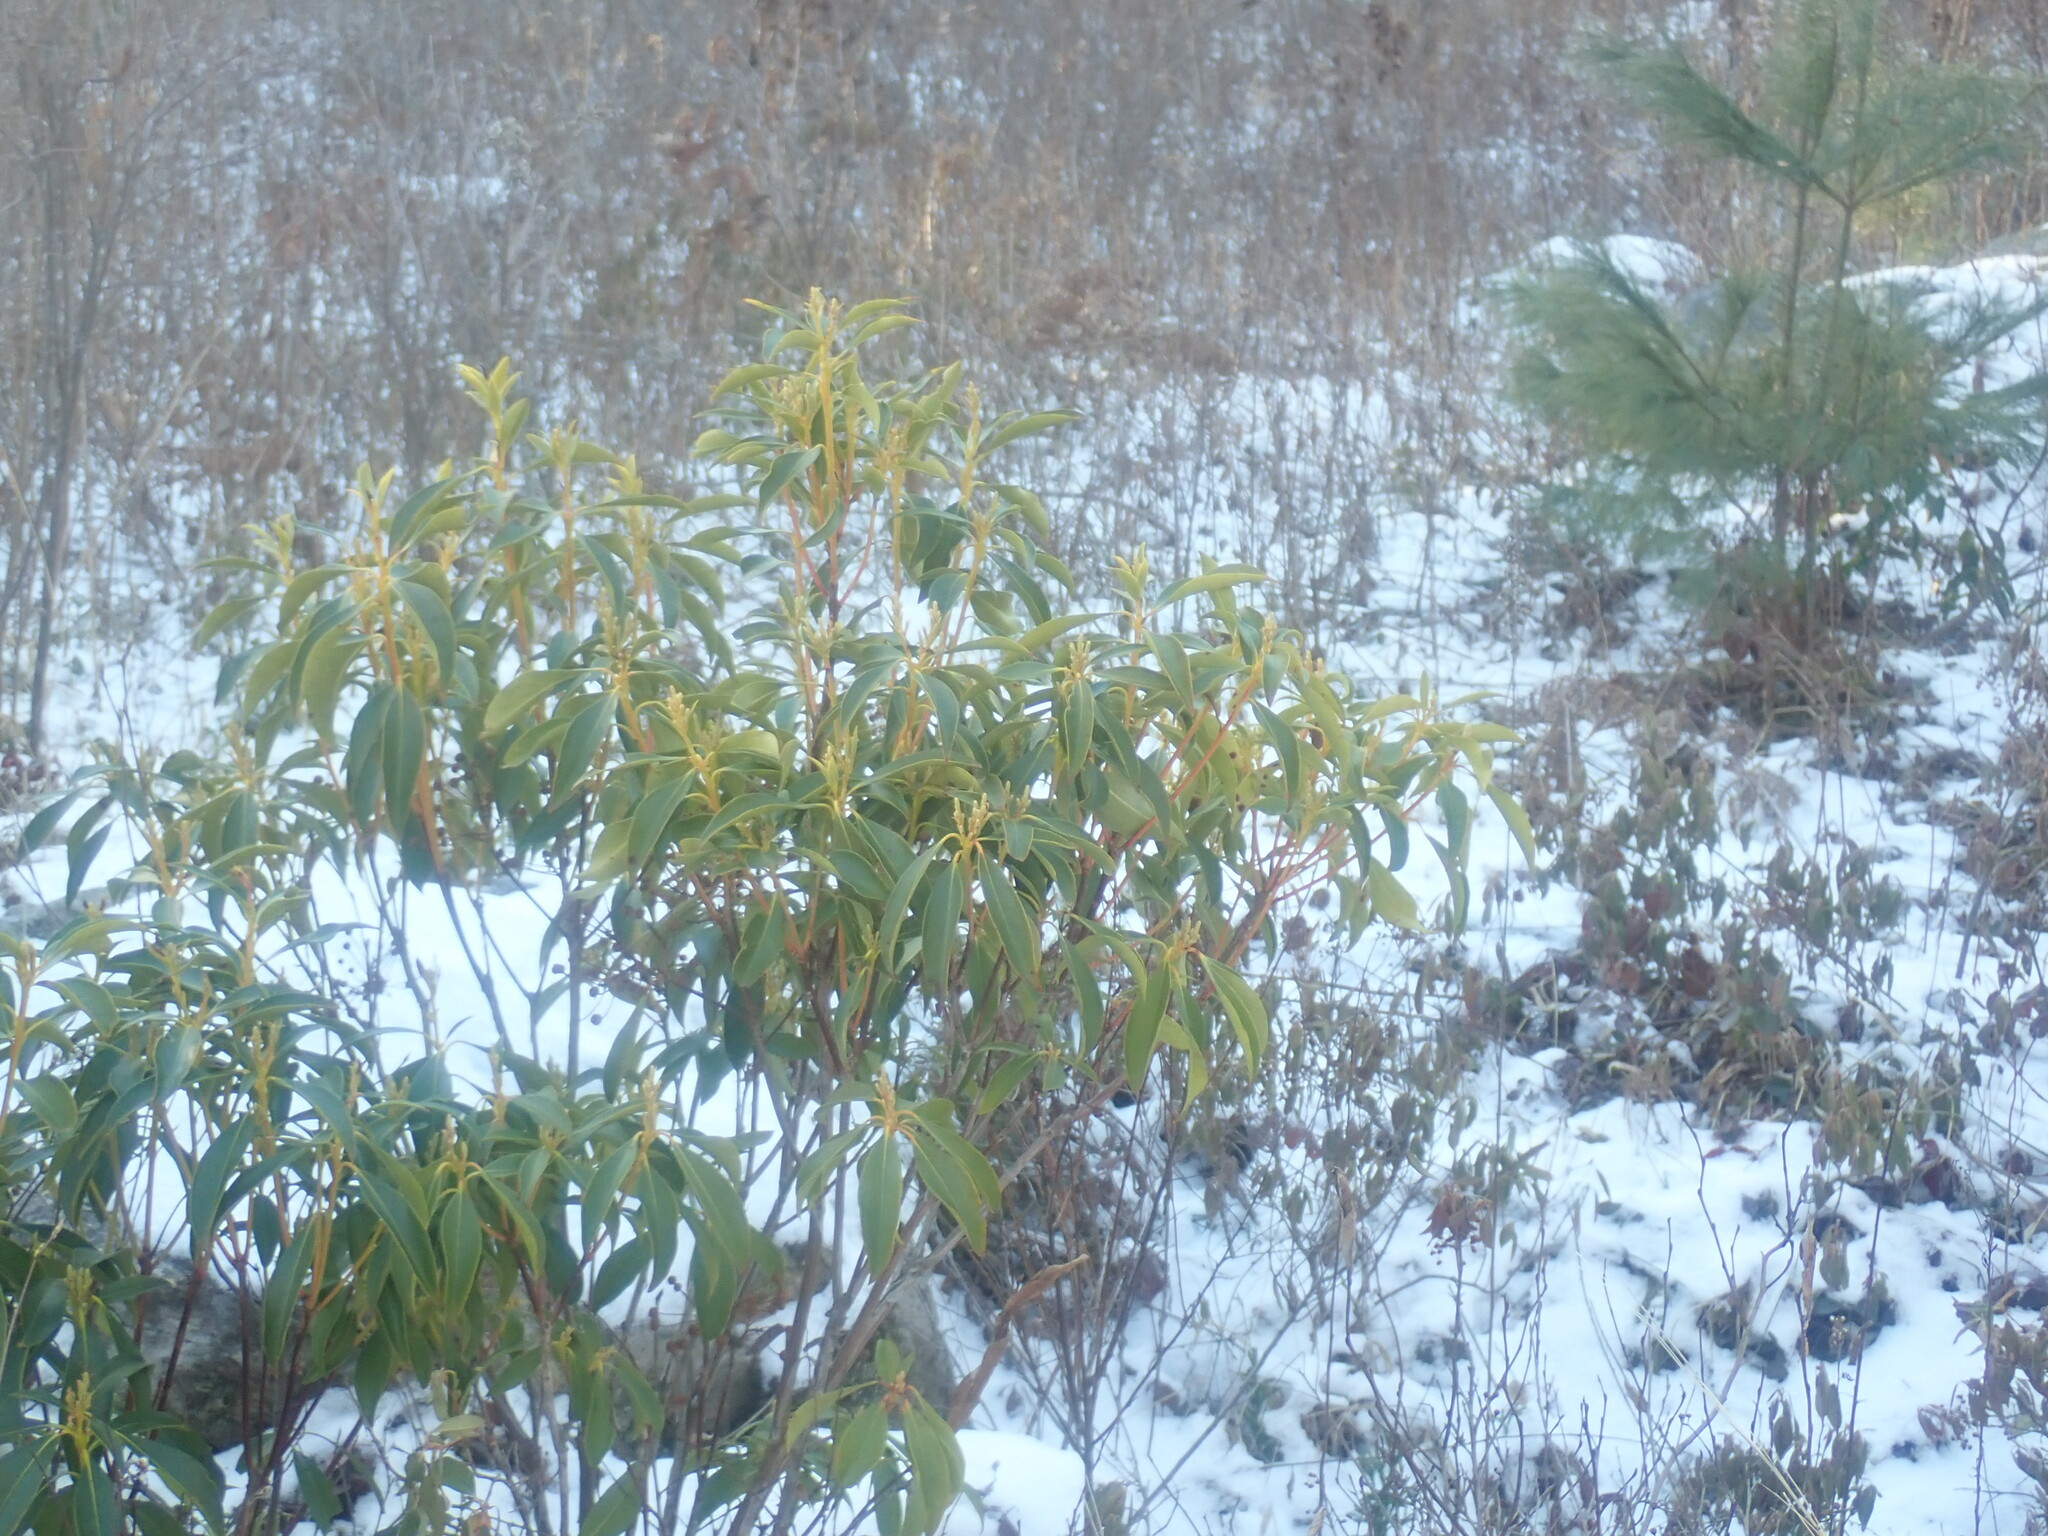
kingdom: Plantae
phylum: Tracheophyta
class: Magnoliopsida
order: Ericales
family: Ericaceae
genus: Kalmia
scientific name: Kalmia latifolia
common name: Mountain-laurel
